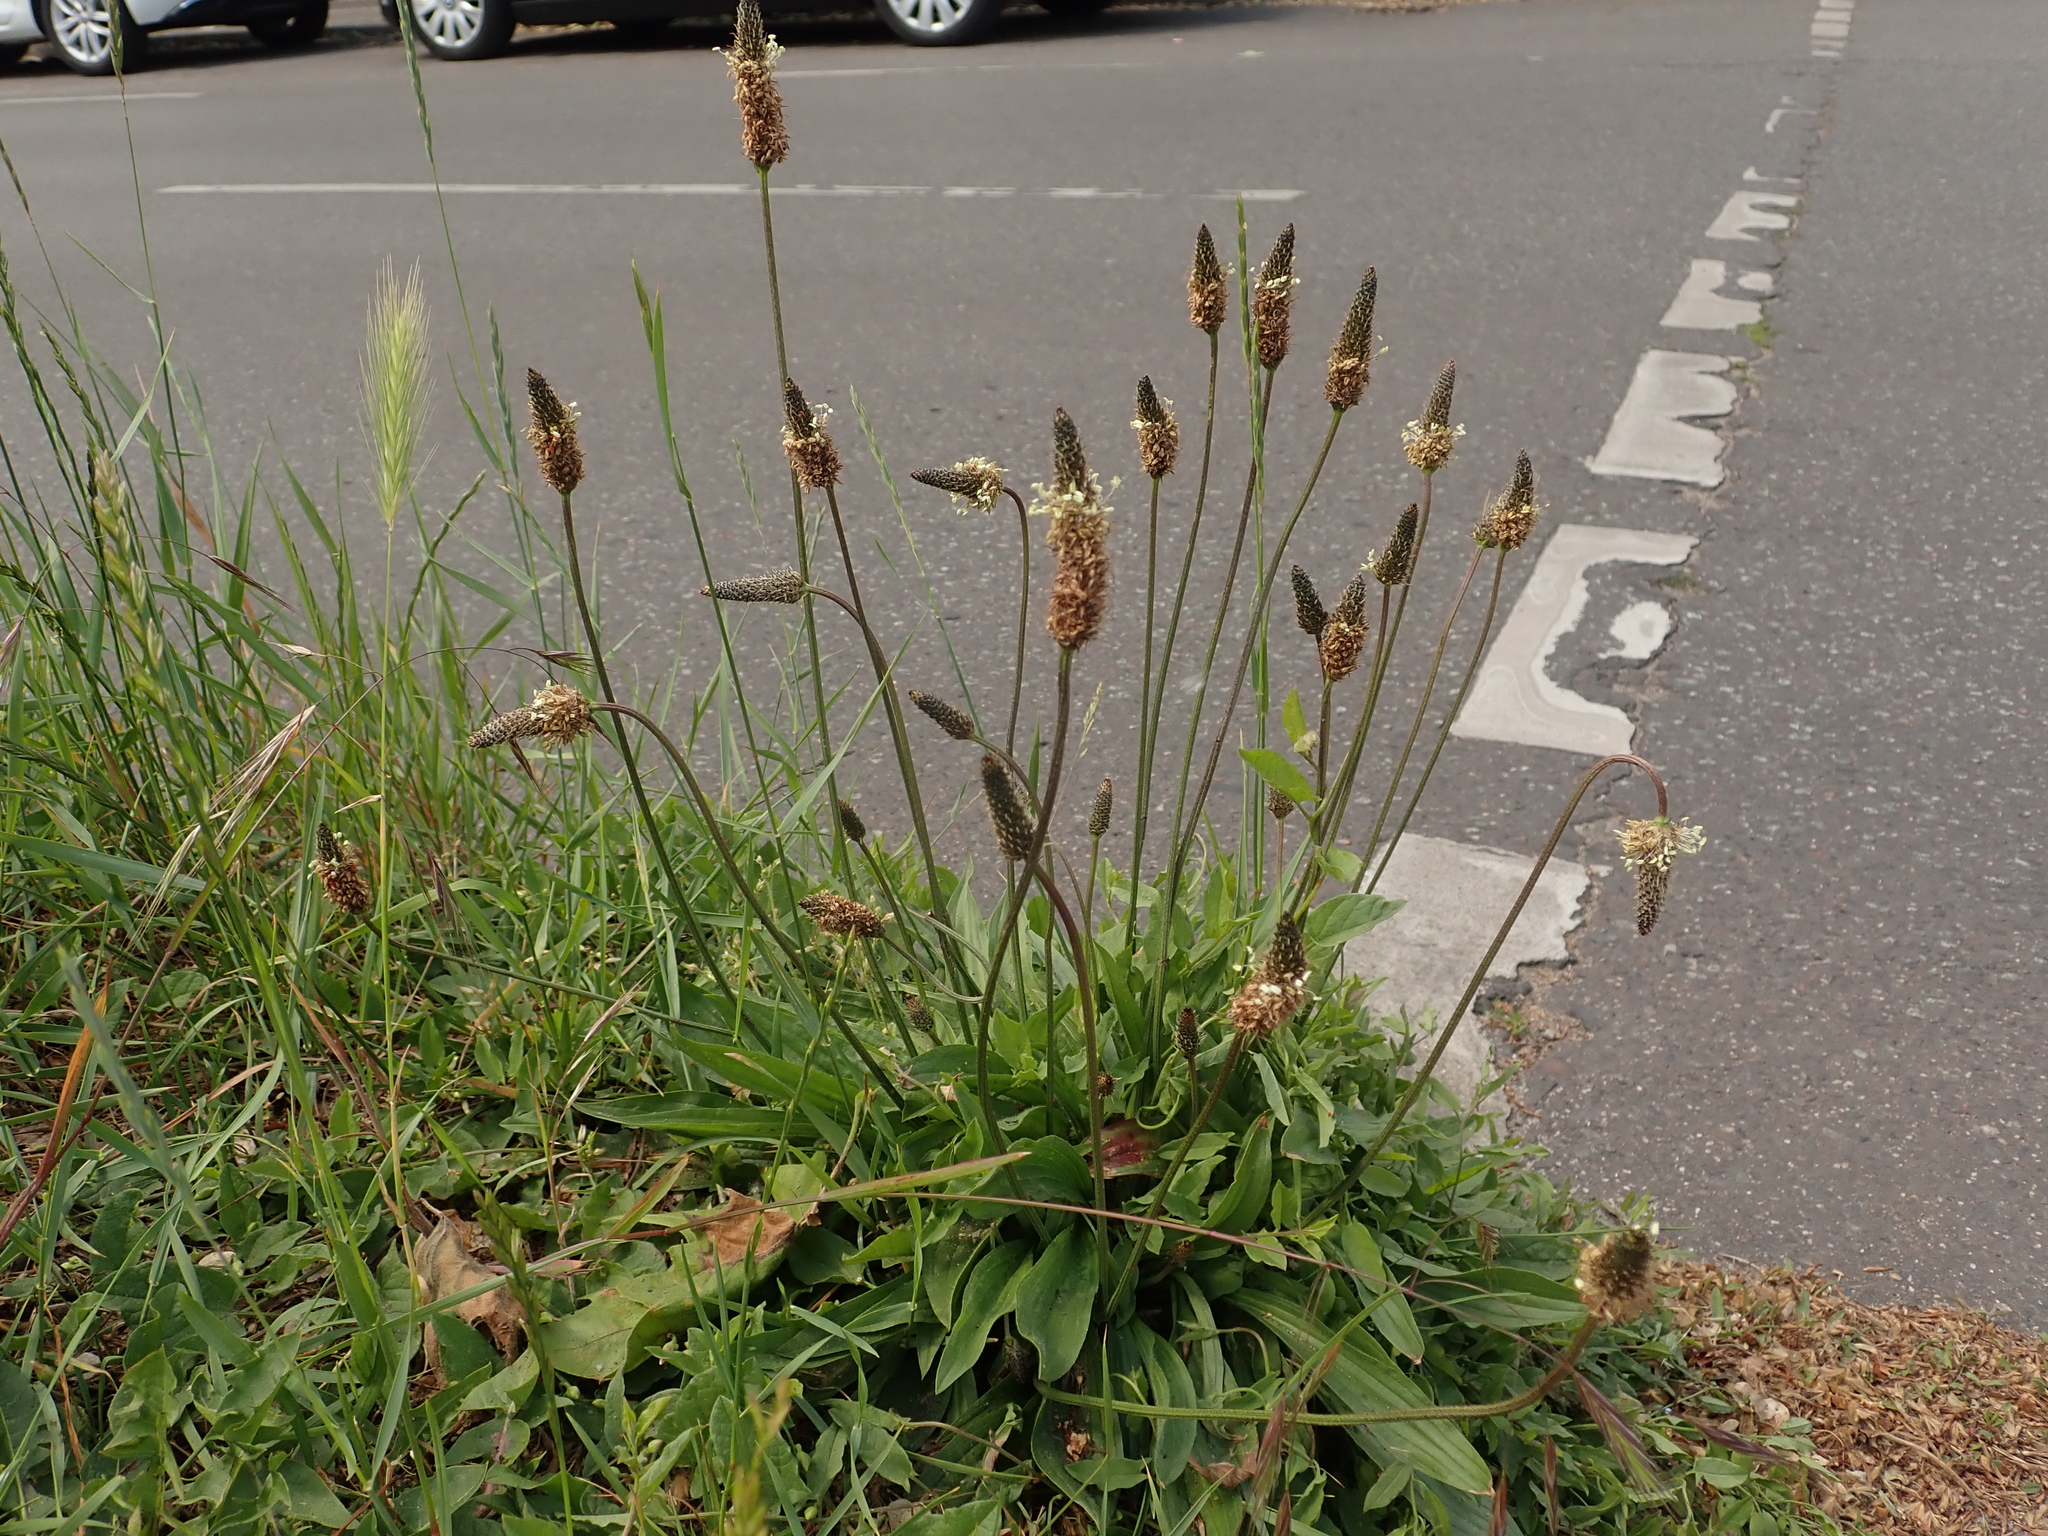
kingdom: Plantae
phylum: Tracheophyta
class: Magnoliopsida
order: Lamiales
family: Plantaginaceae
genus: Plantago
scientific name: Plantago lanceolata
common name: Ribwort plantain
